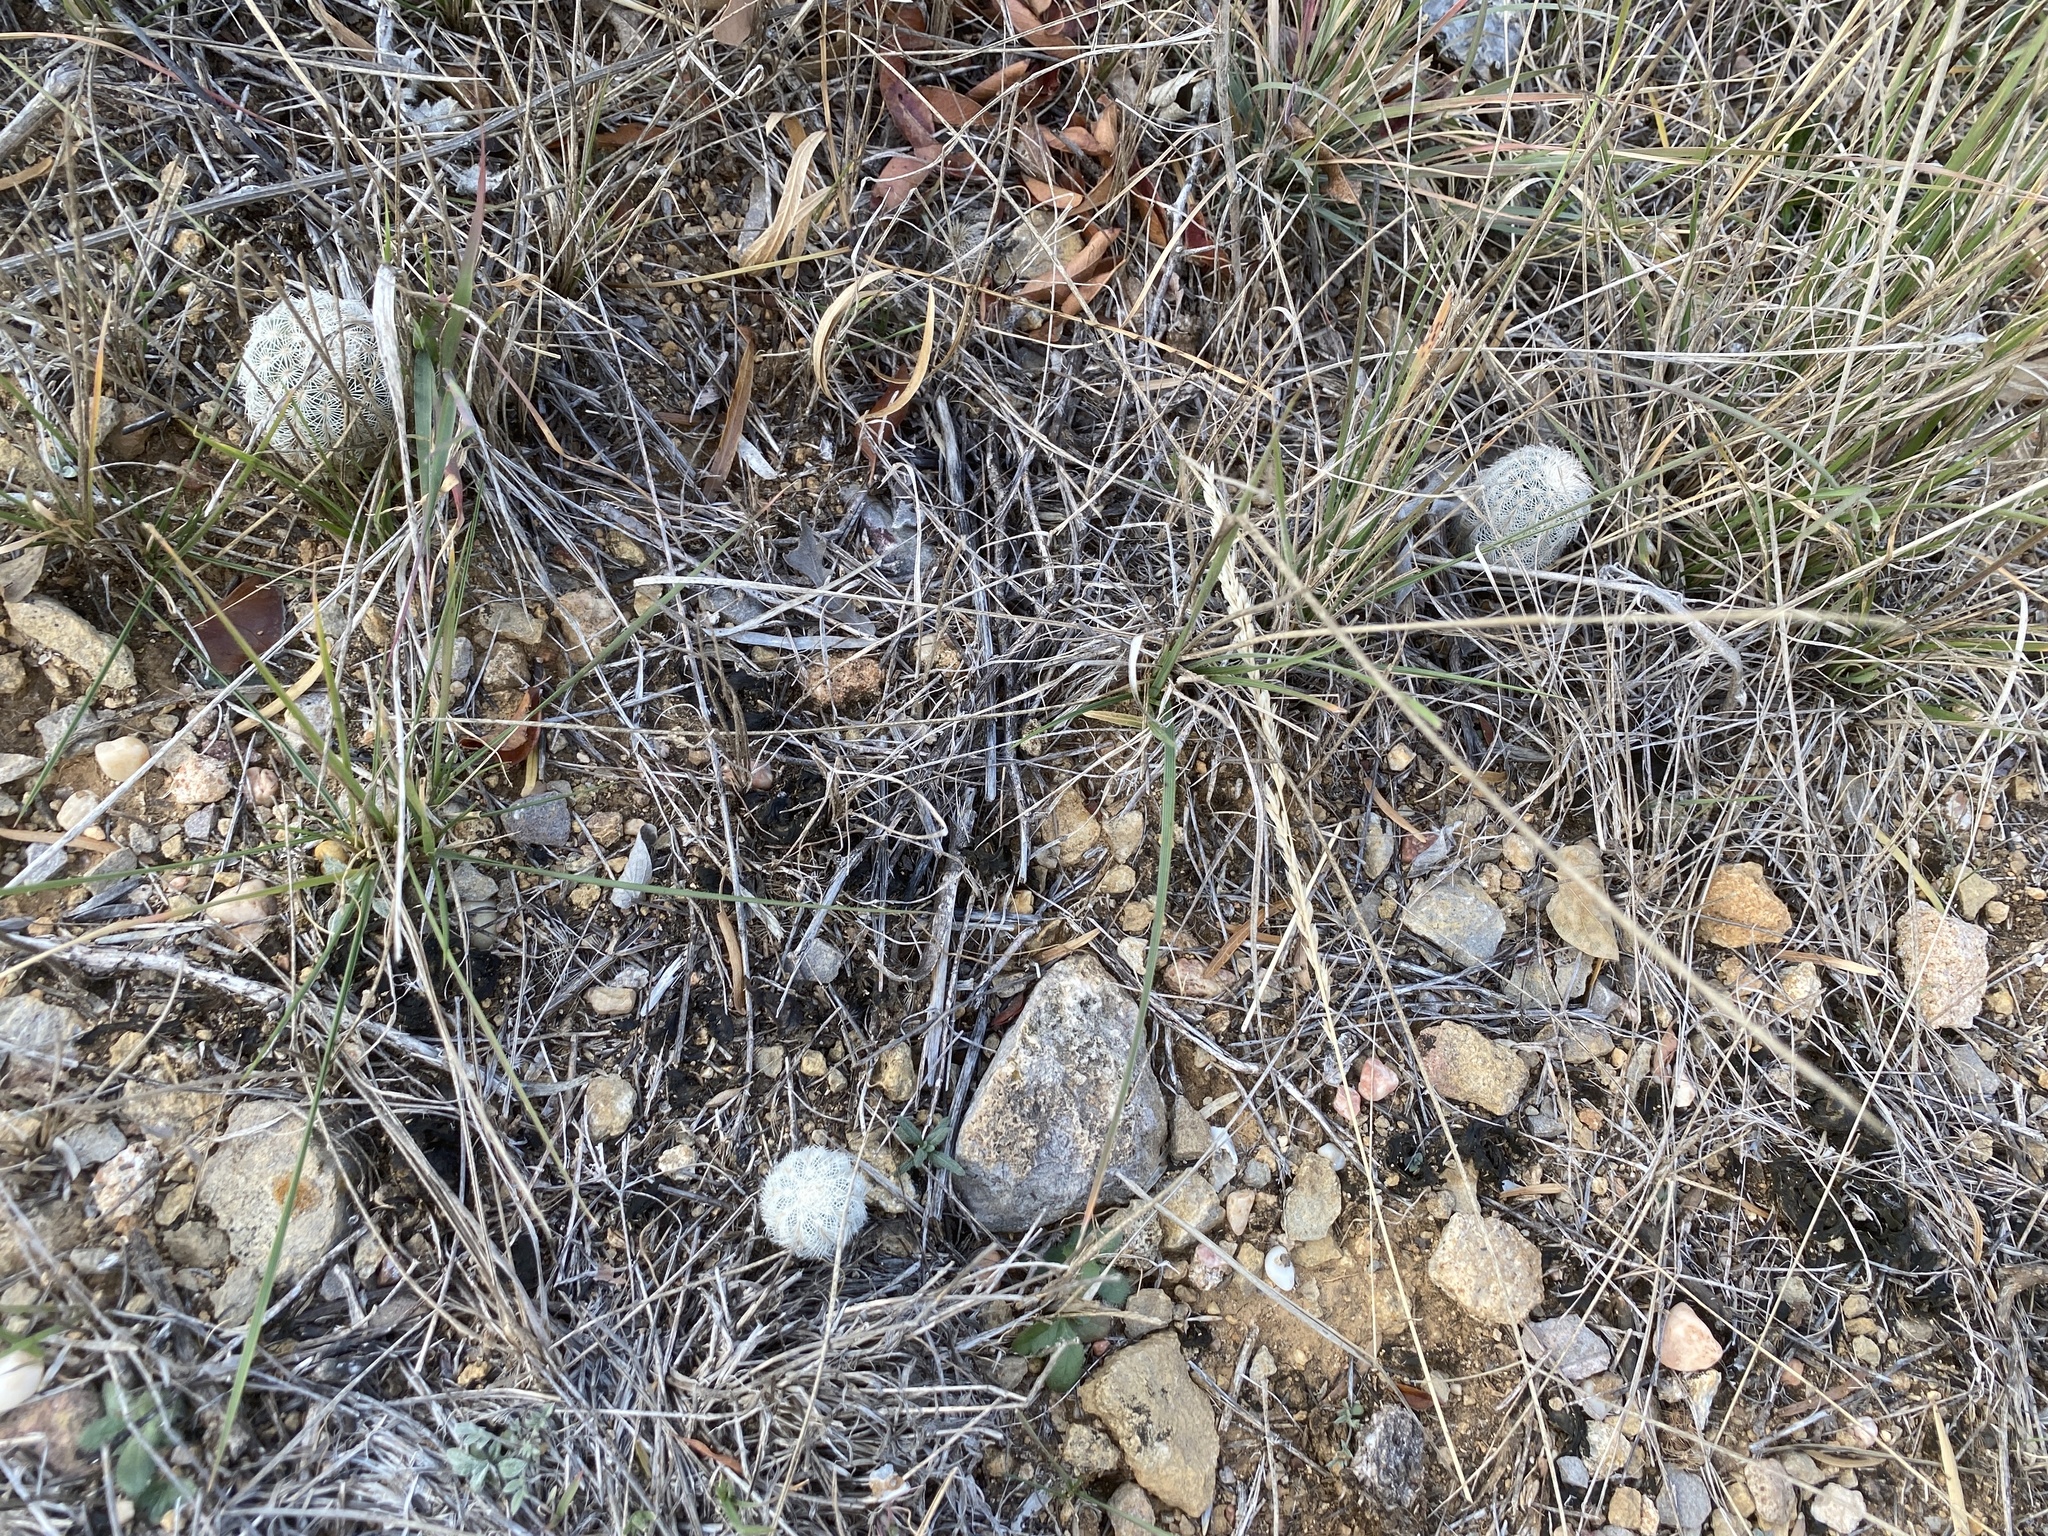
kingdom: Plantae
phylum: Tracheophyta
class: Magnoliopsida
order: Caryophyllales
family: Cactaceae
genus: Echinocereus
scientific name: Echinocereus reichenbachii
